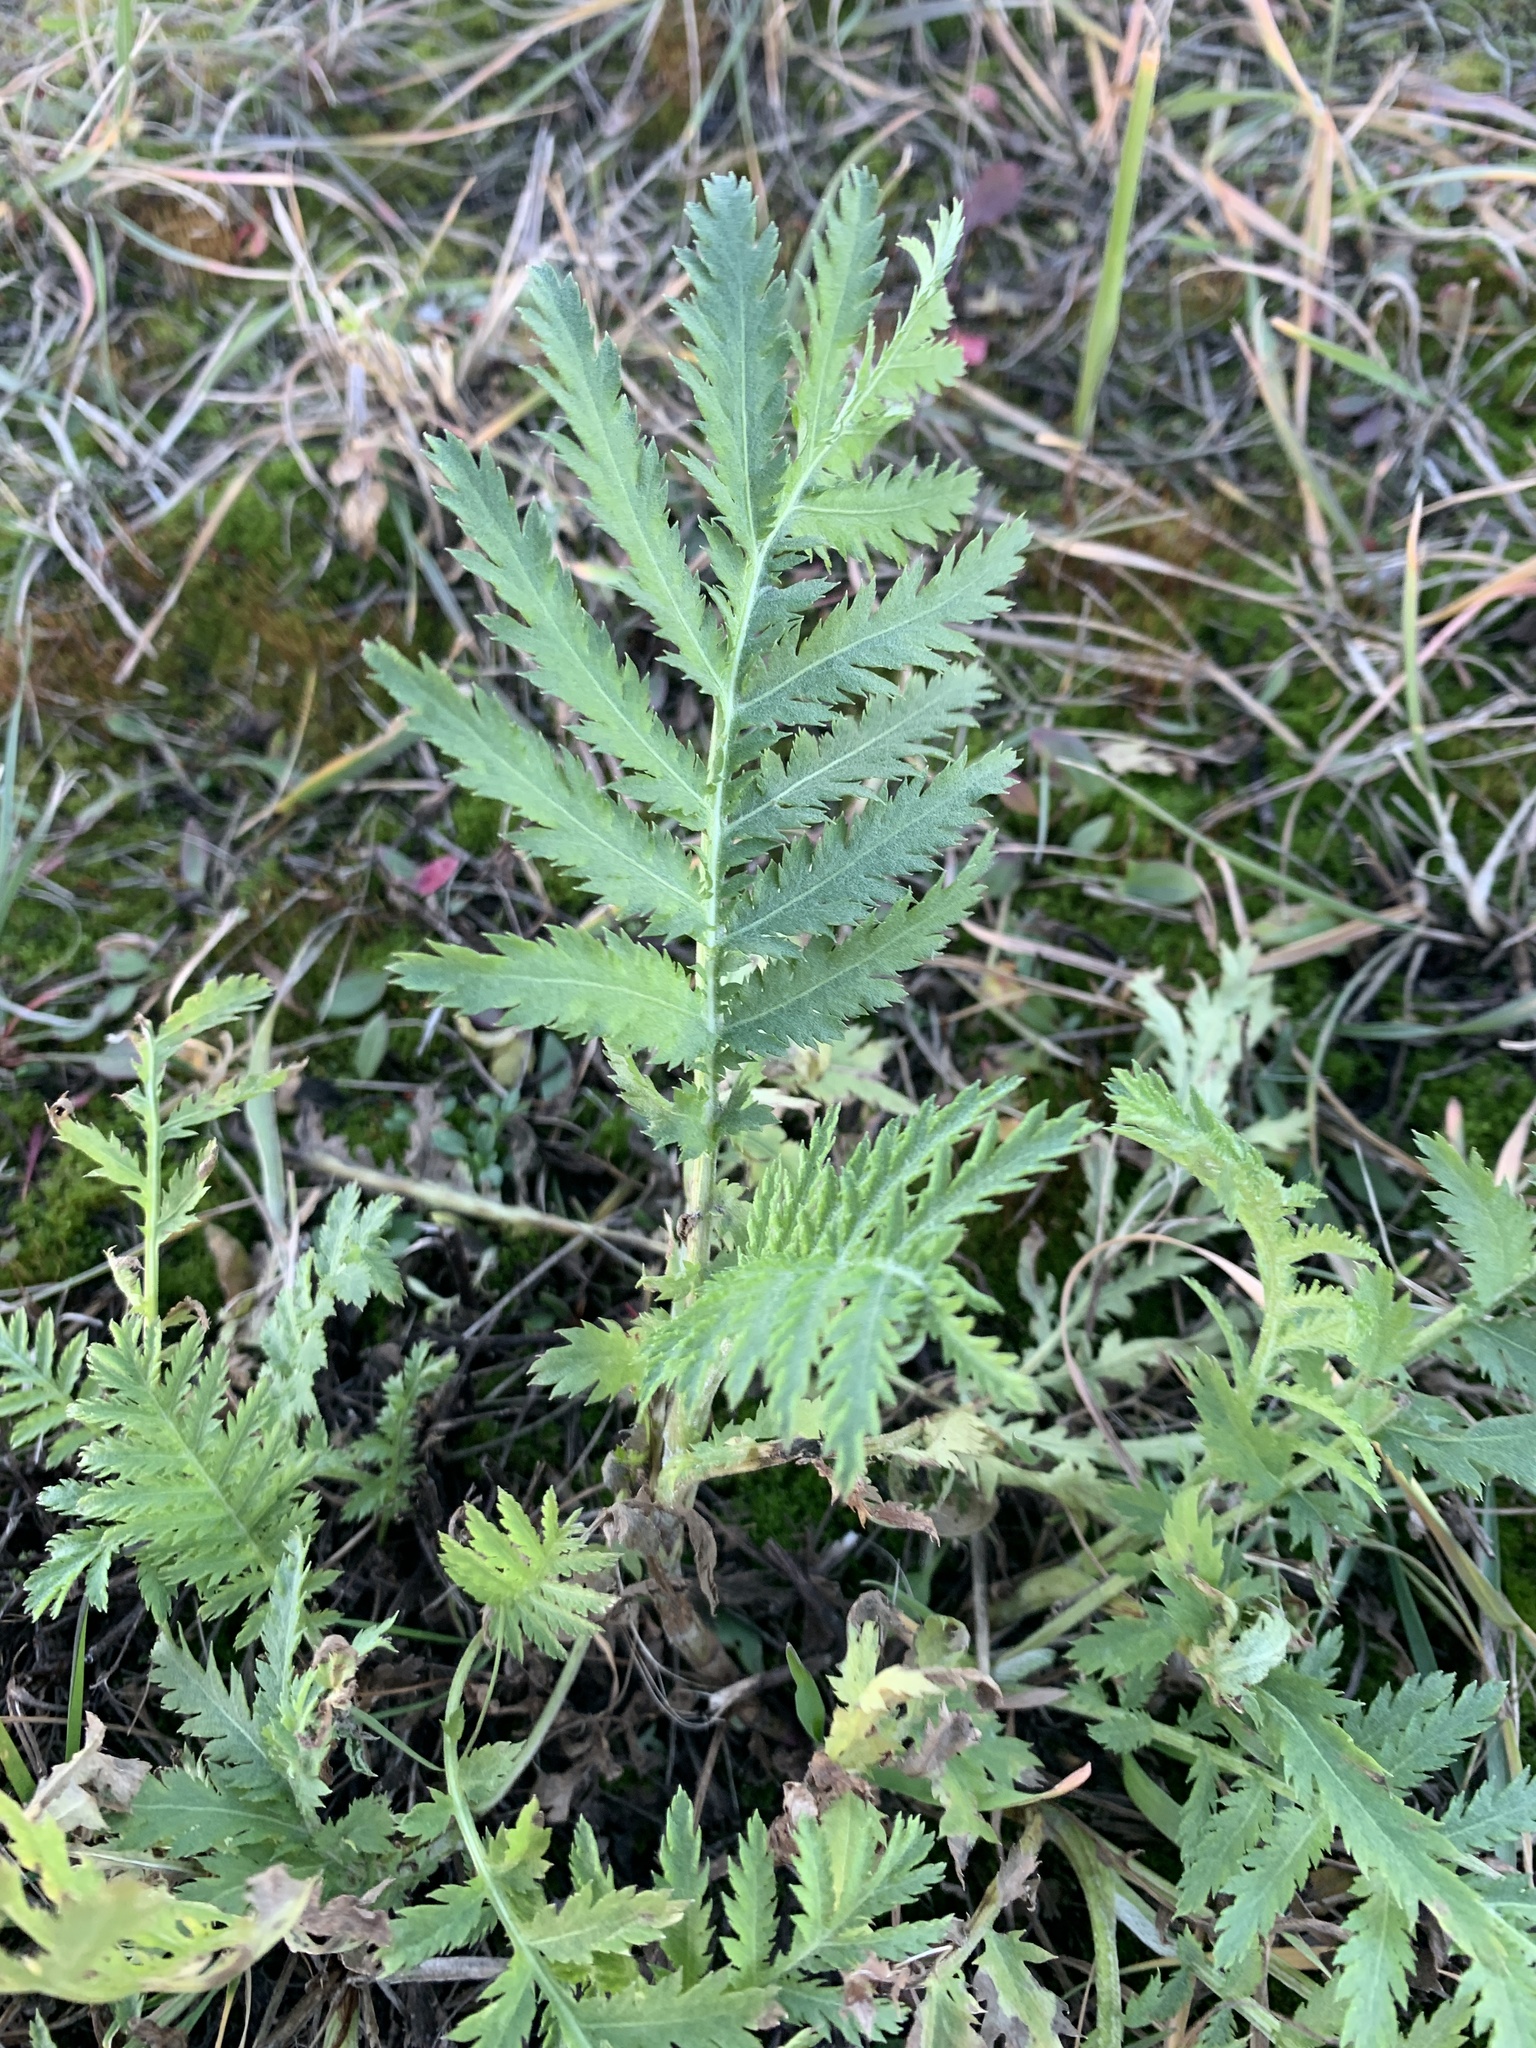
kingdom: Plantae
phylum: Tracheophyta
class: Magnoliopsida
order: Asterales
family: Asteraceae
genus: Tanacetum
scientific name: Tanacetum vulgare
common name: Common tansy
